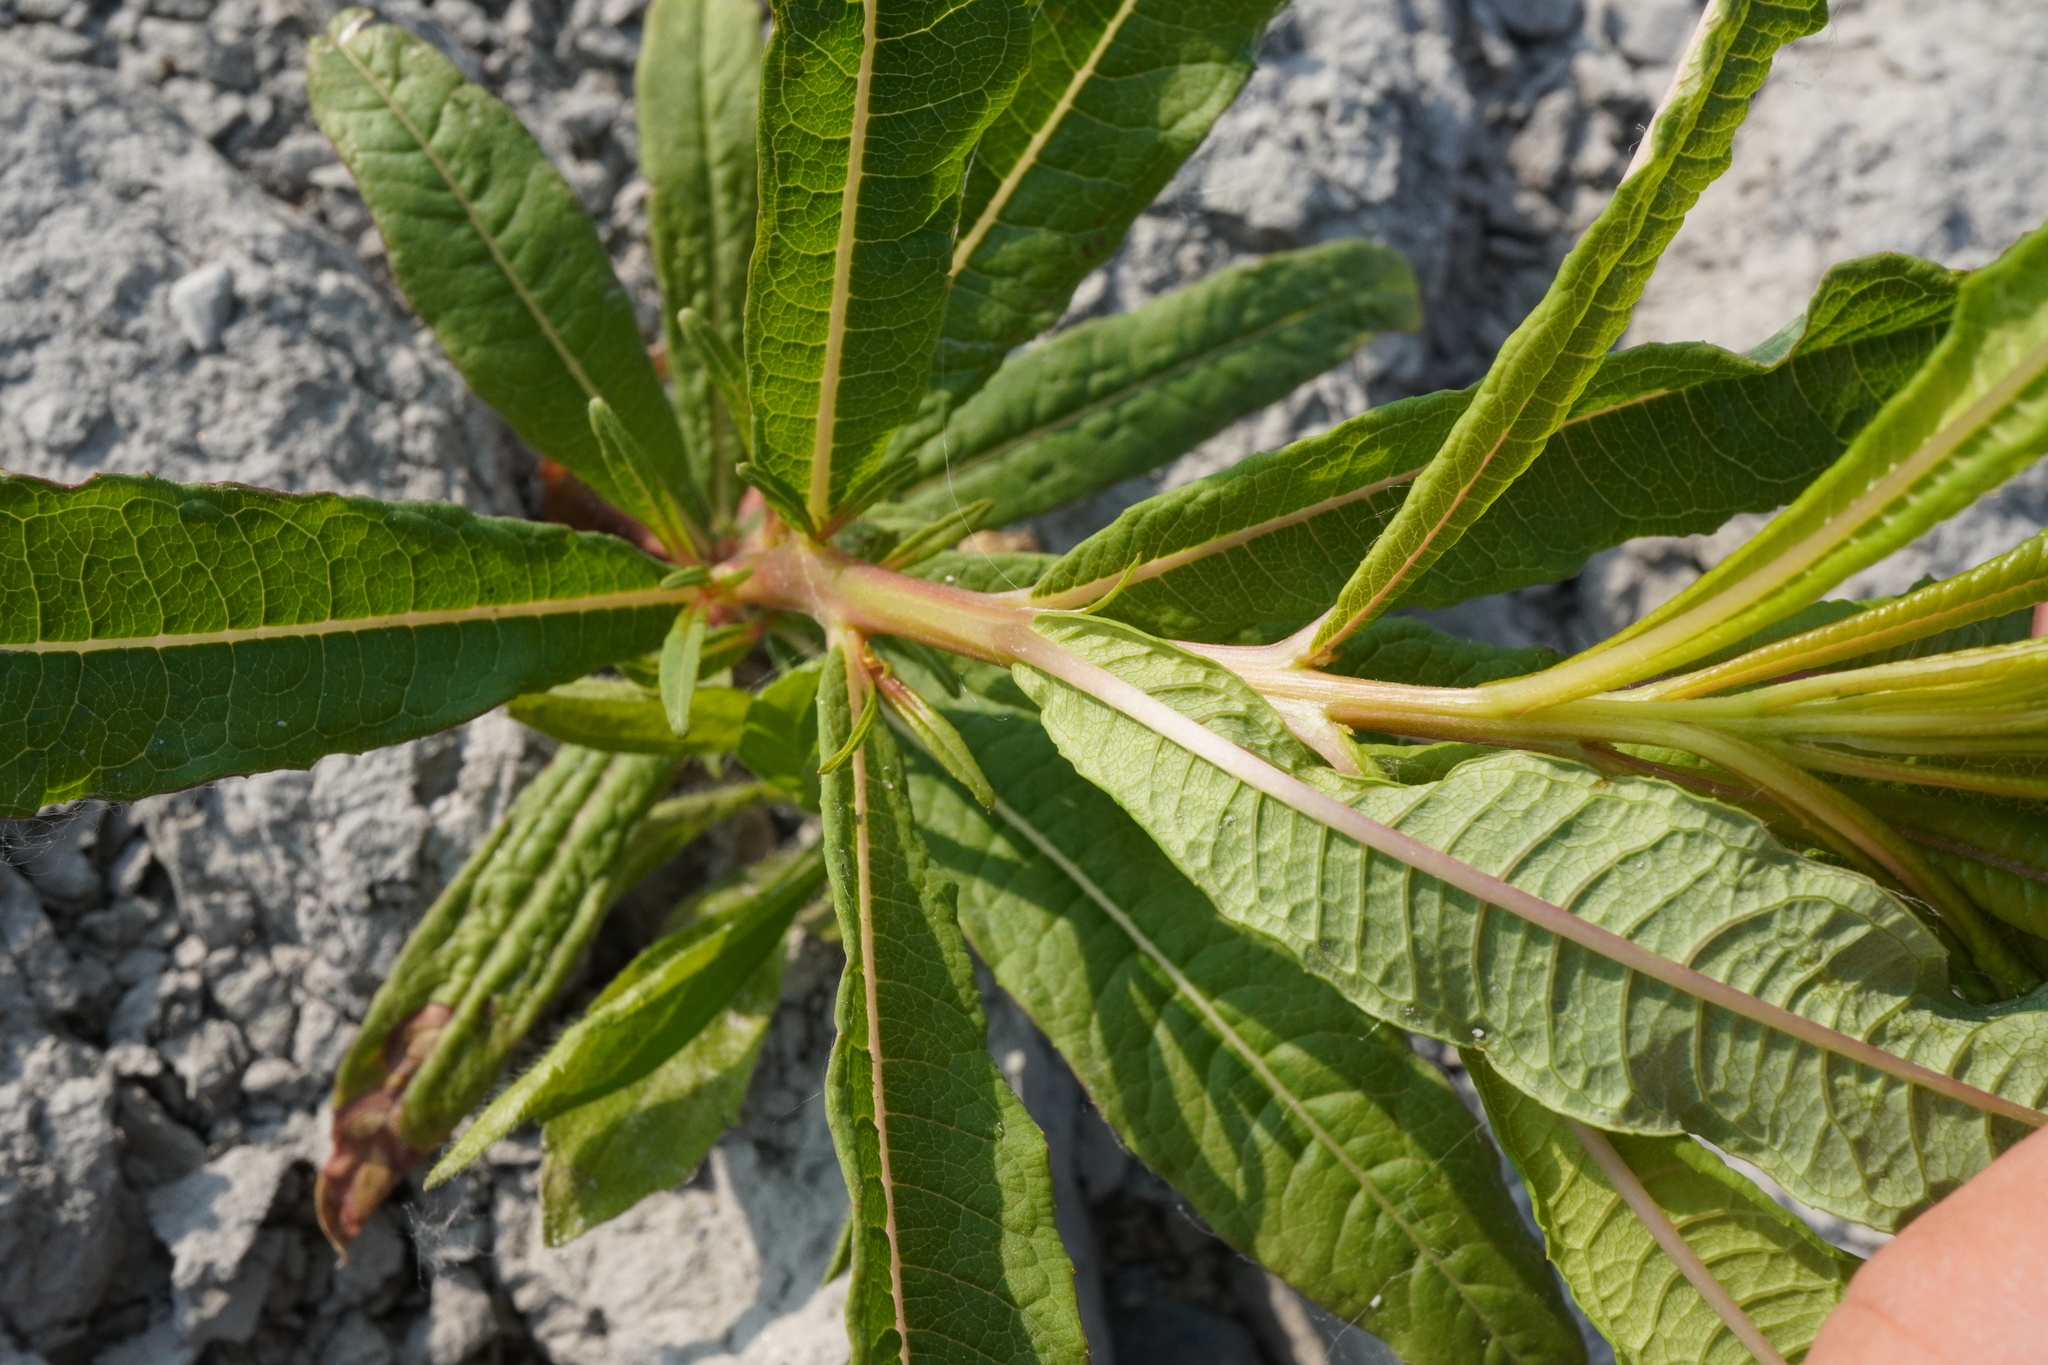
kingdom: Plantae
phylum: Tracheophyta
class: Magnoliopsida
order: Myrtales
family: Onagraceae
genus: Chamaenerion
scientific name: Chamaenerion angustifolium
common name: Fireweed
